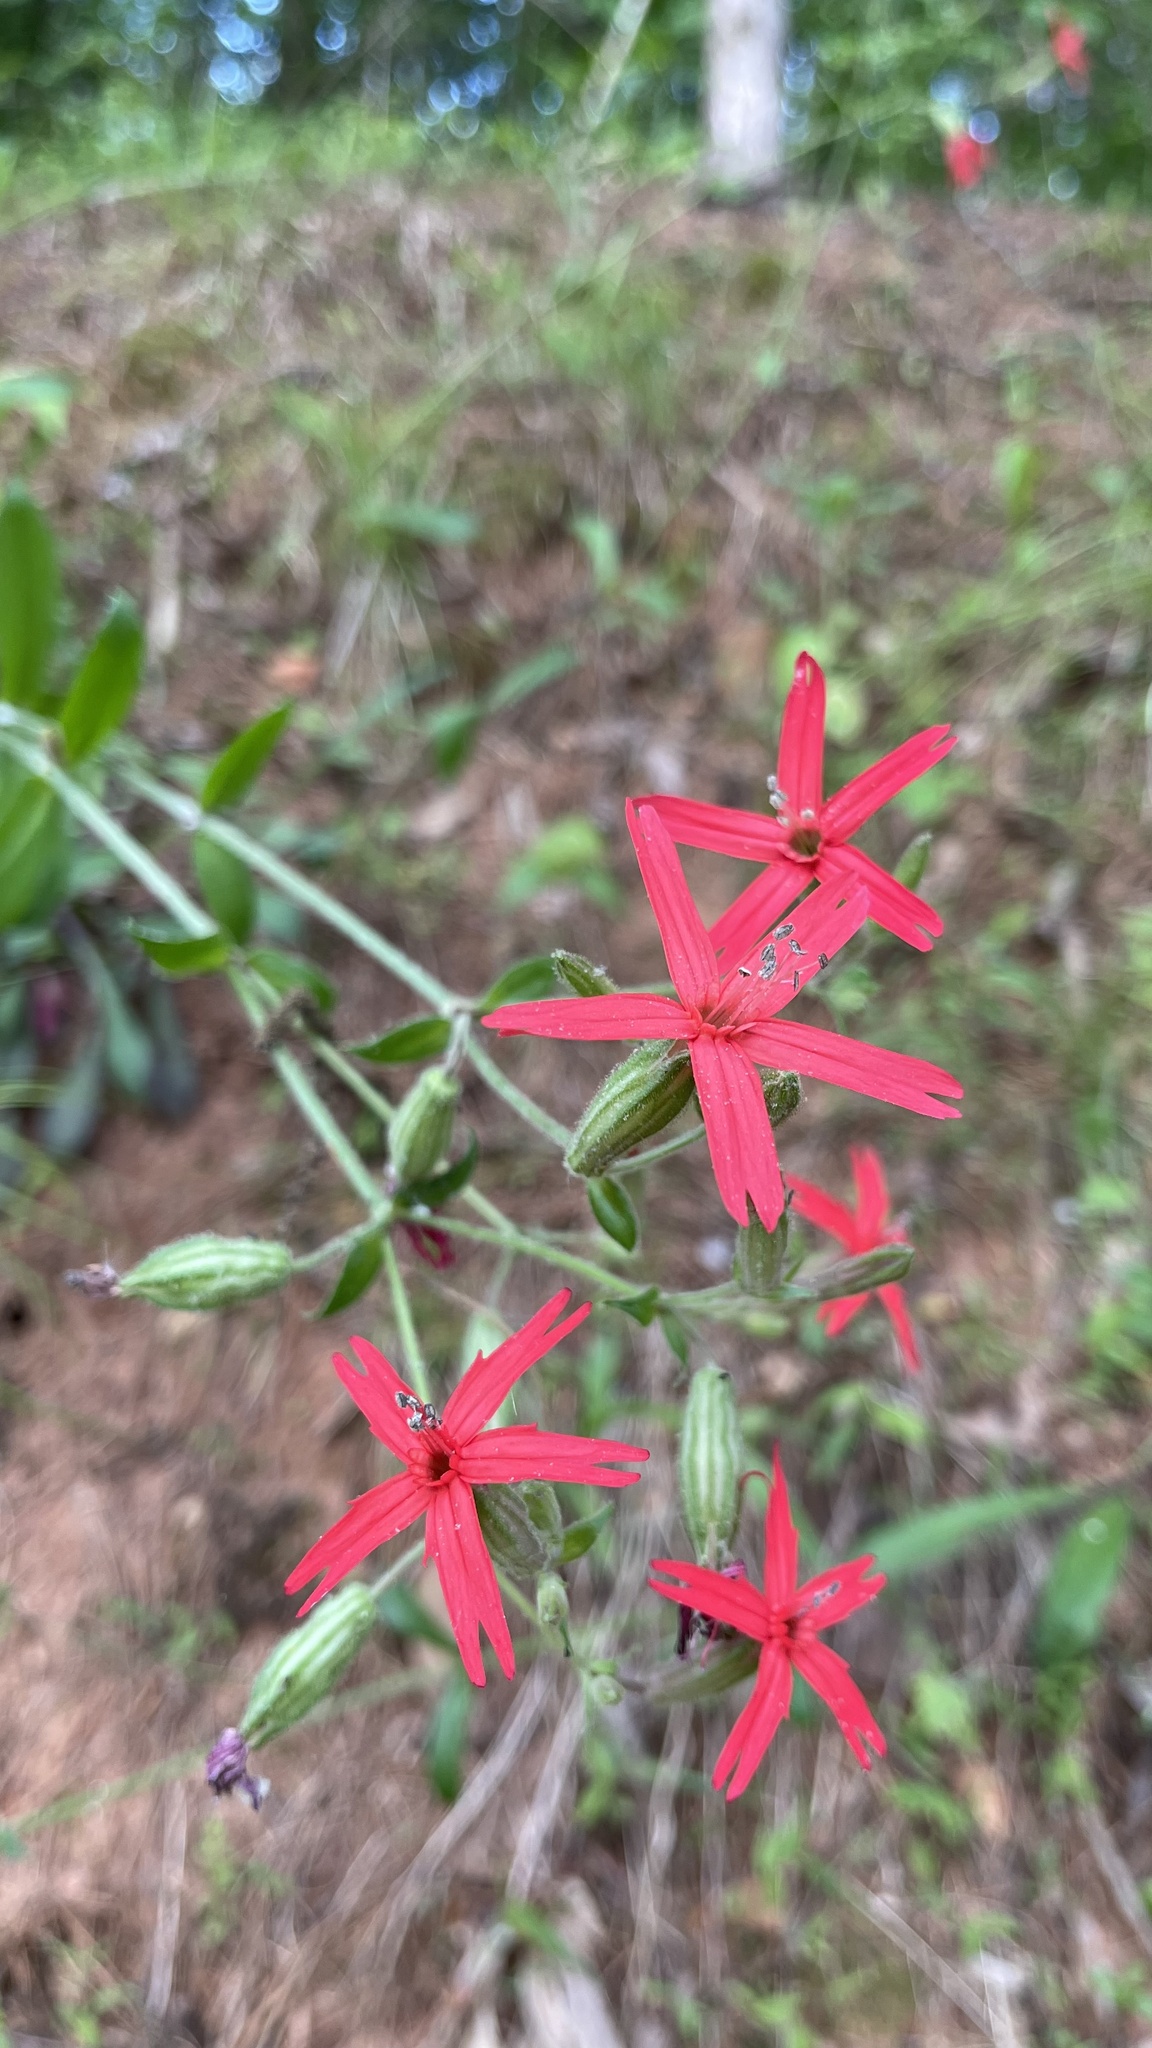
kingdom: Plantae
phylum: Tracheophyta
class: Magnoliopsida
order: Caryophyllales
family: Caryophyllaceae
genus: Silene
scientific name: Silene virginica
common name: Fire-pink
